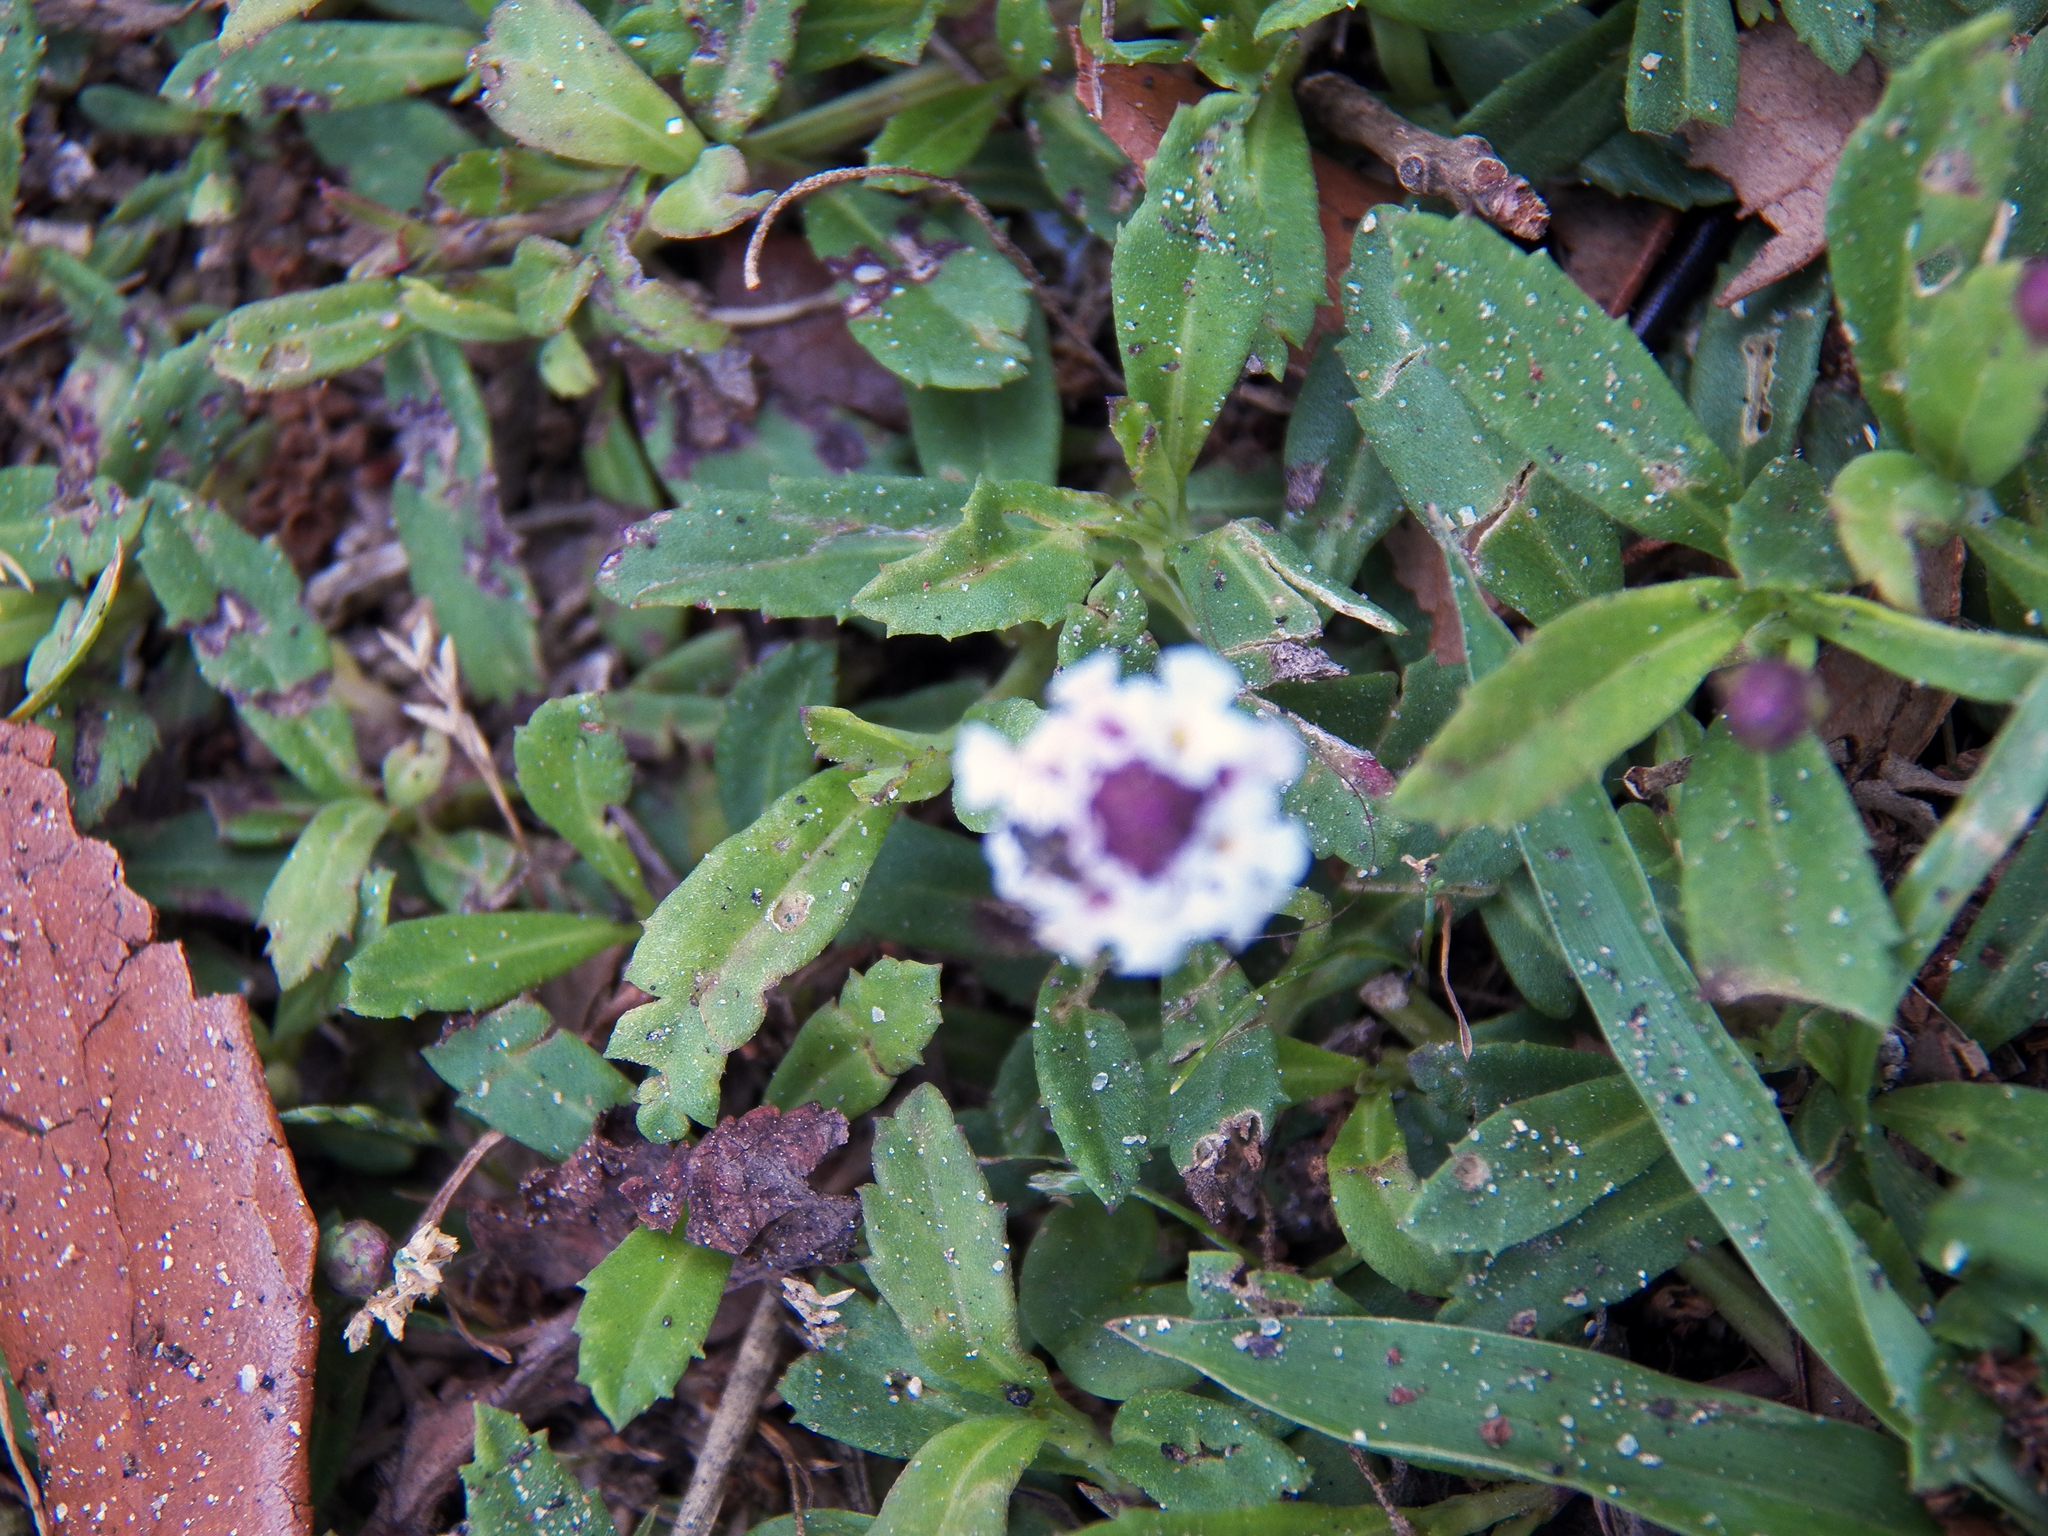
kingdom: Plantae
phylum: Tracheophyta
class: Magnoliopsida
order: Lamiales
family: Verbenaceae
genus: Phyla
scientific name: Phyla nodiflora
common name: Frogfruit
